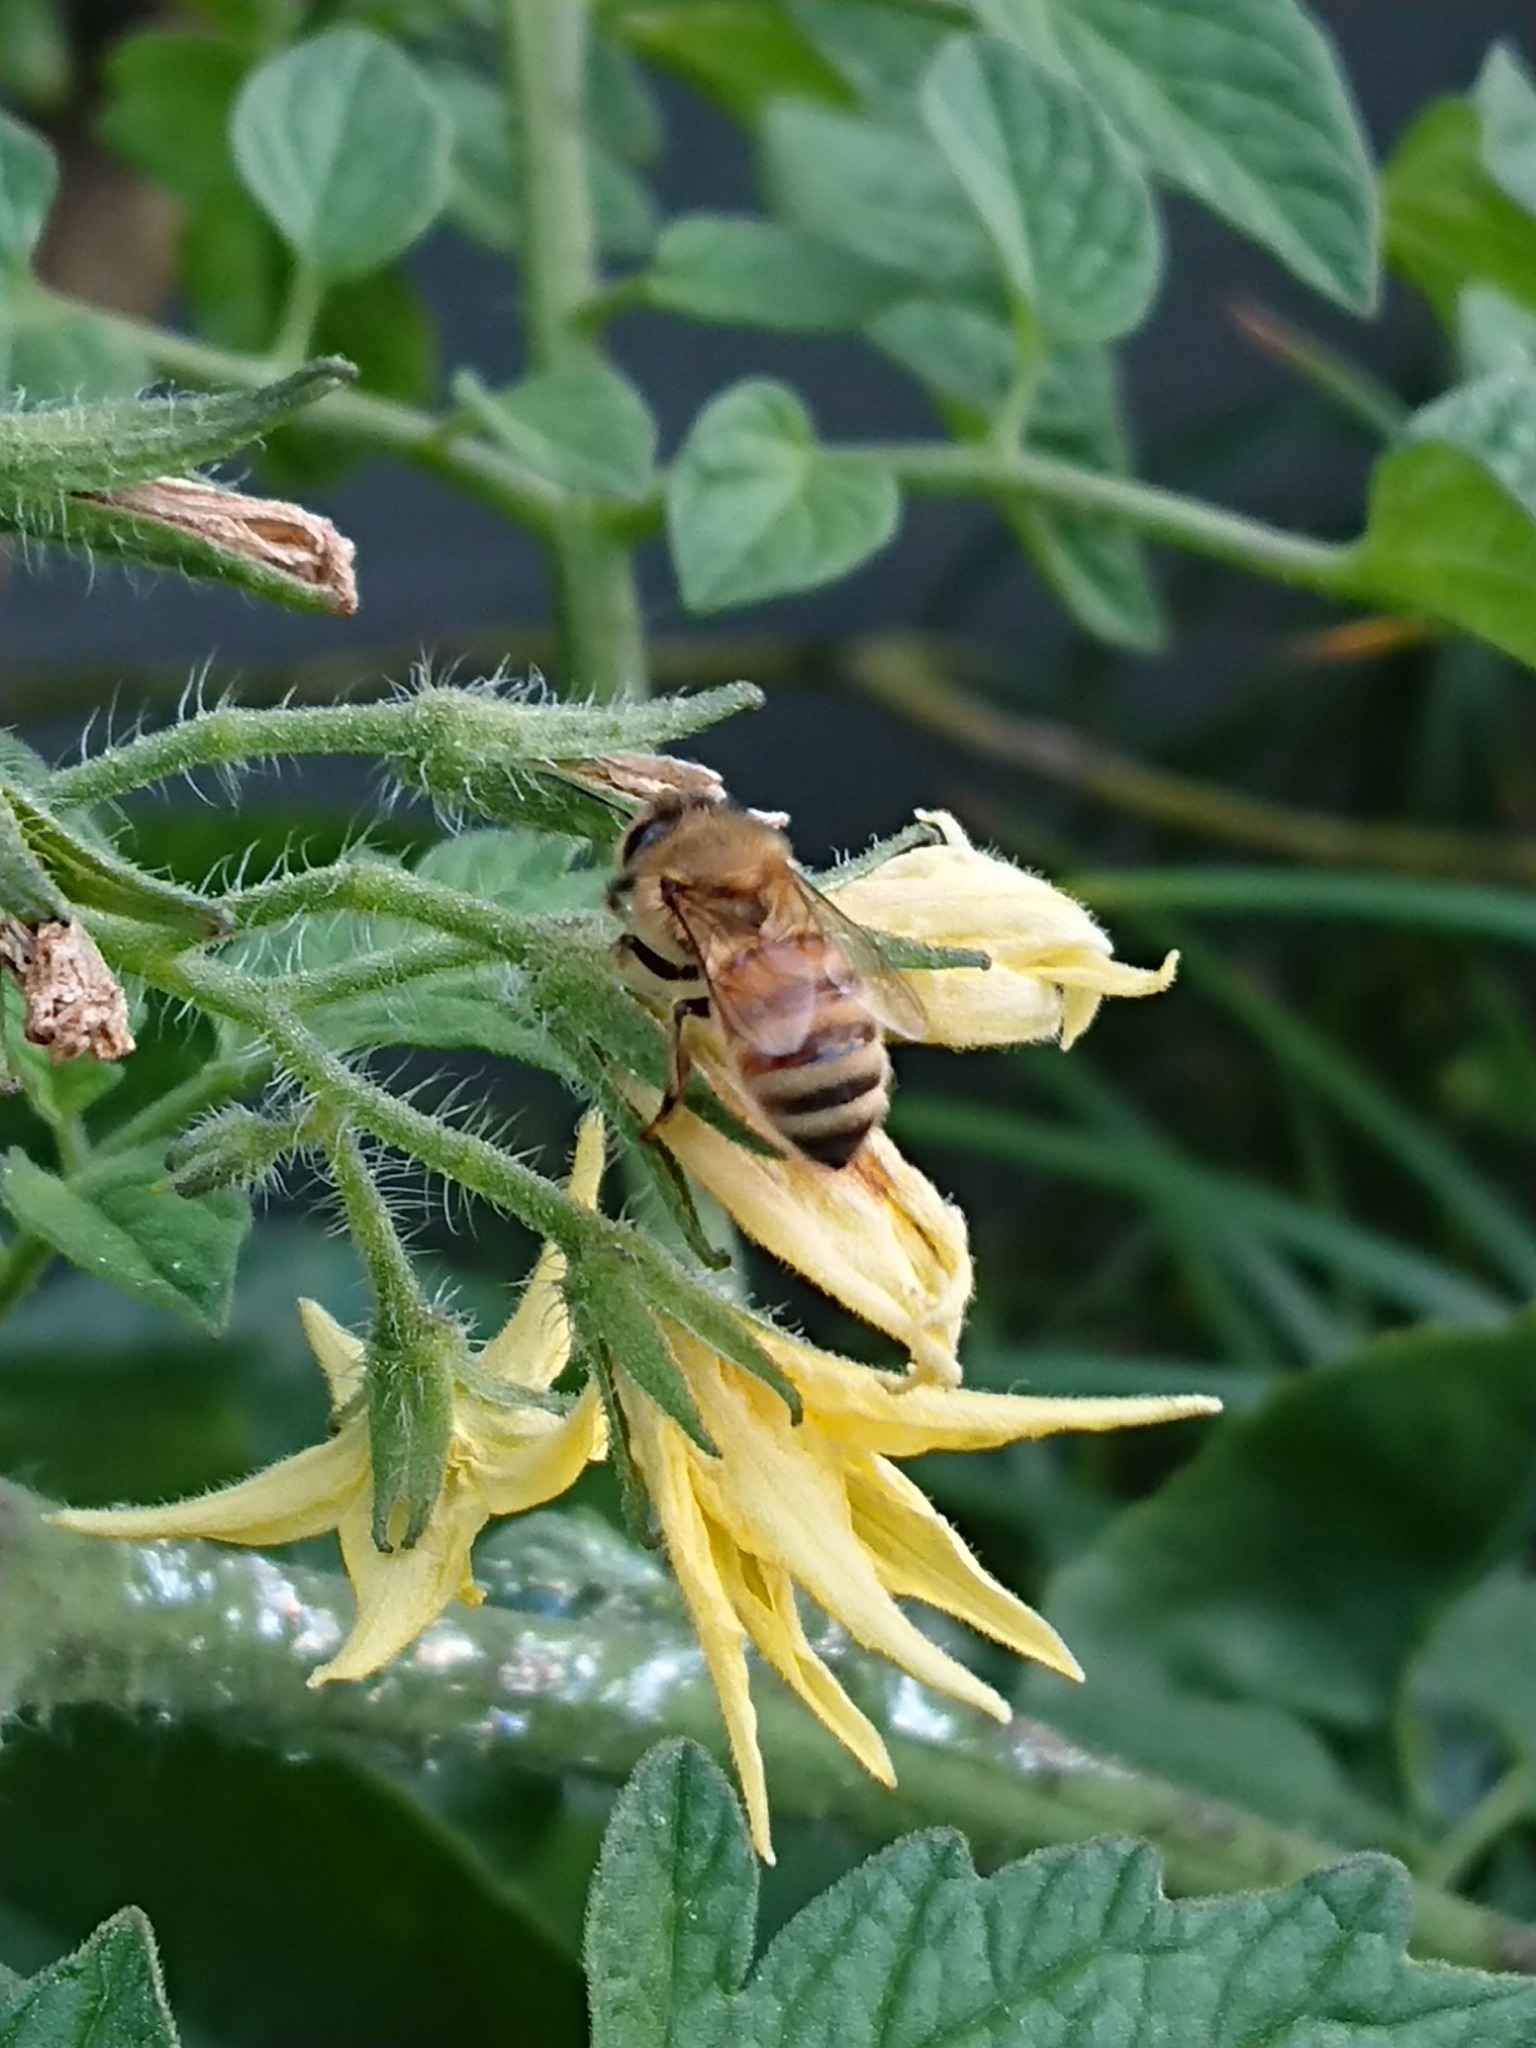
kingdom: Animalia
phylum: Arthropoda
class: Insecta
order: Hymenoptera
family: Apidae
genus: Apis
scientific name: Apis mellifera
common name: Honey bee
